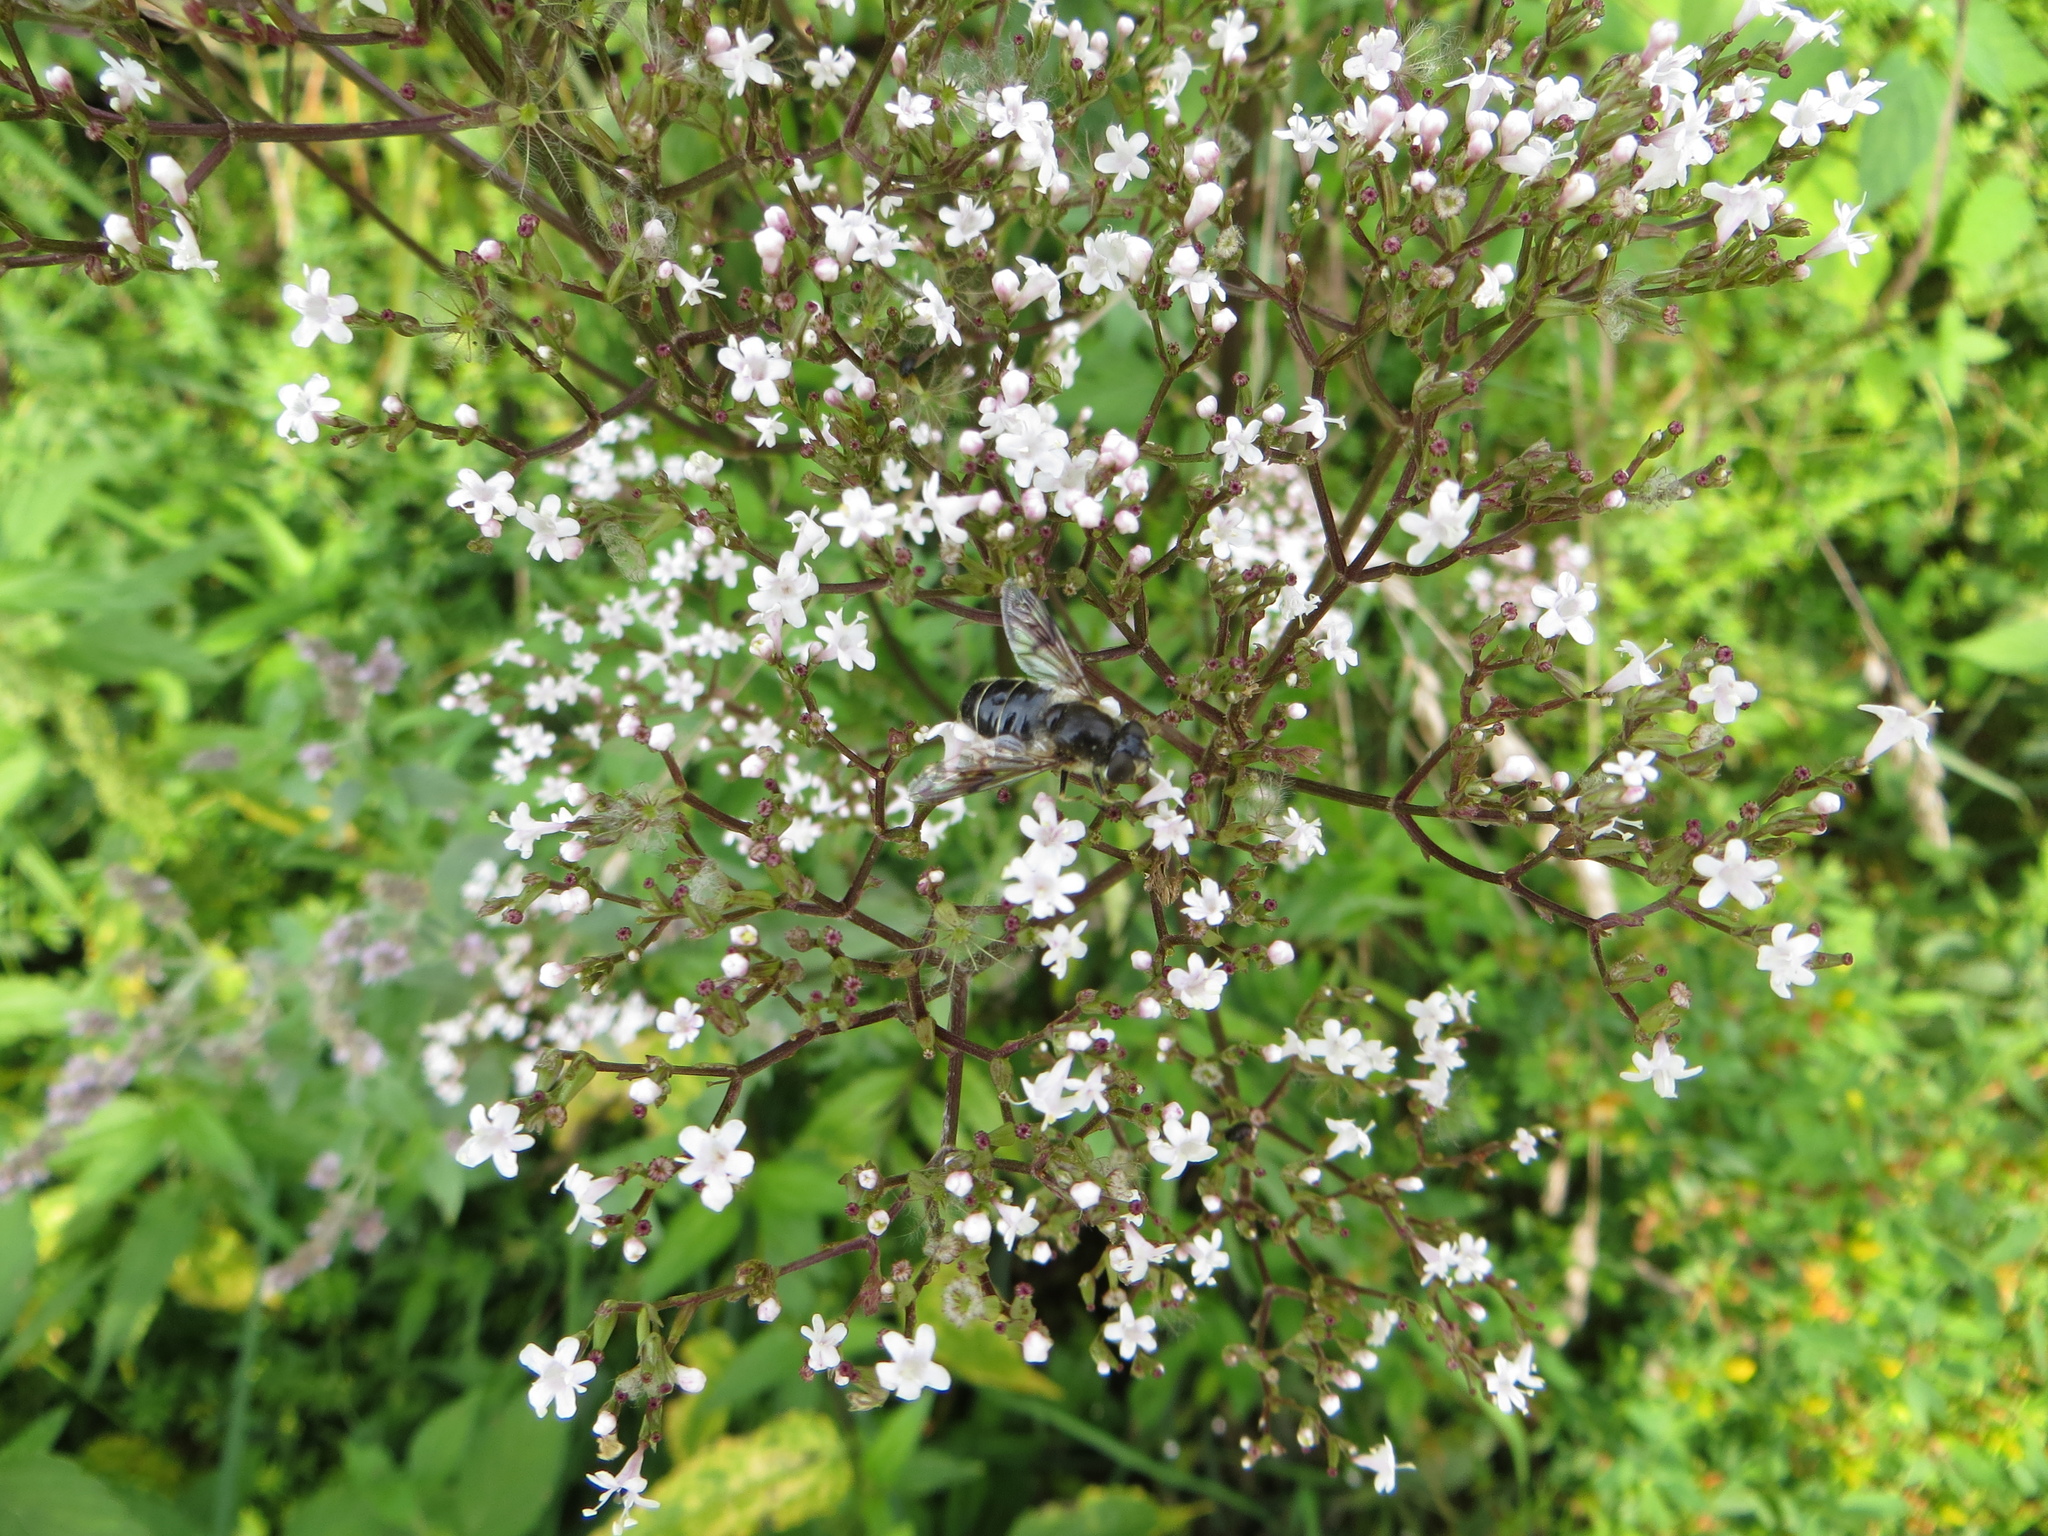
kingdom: Animalia
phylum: Arthropoda
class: Insecta
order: Diptera
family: Syrphidae
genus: Eristalis
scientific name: Eristalis rupium
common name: Hover fly
